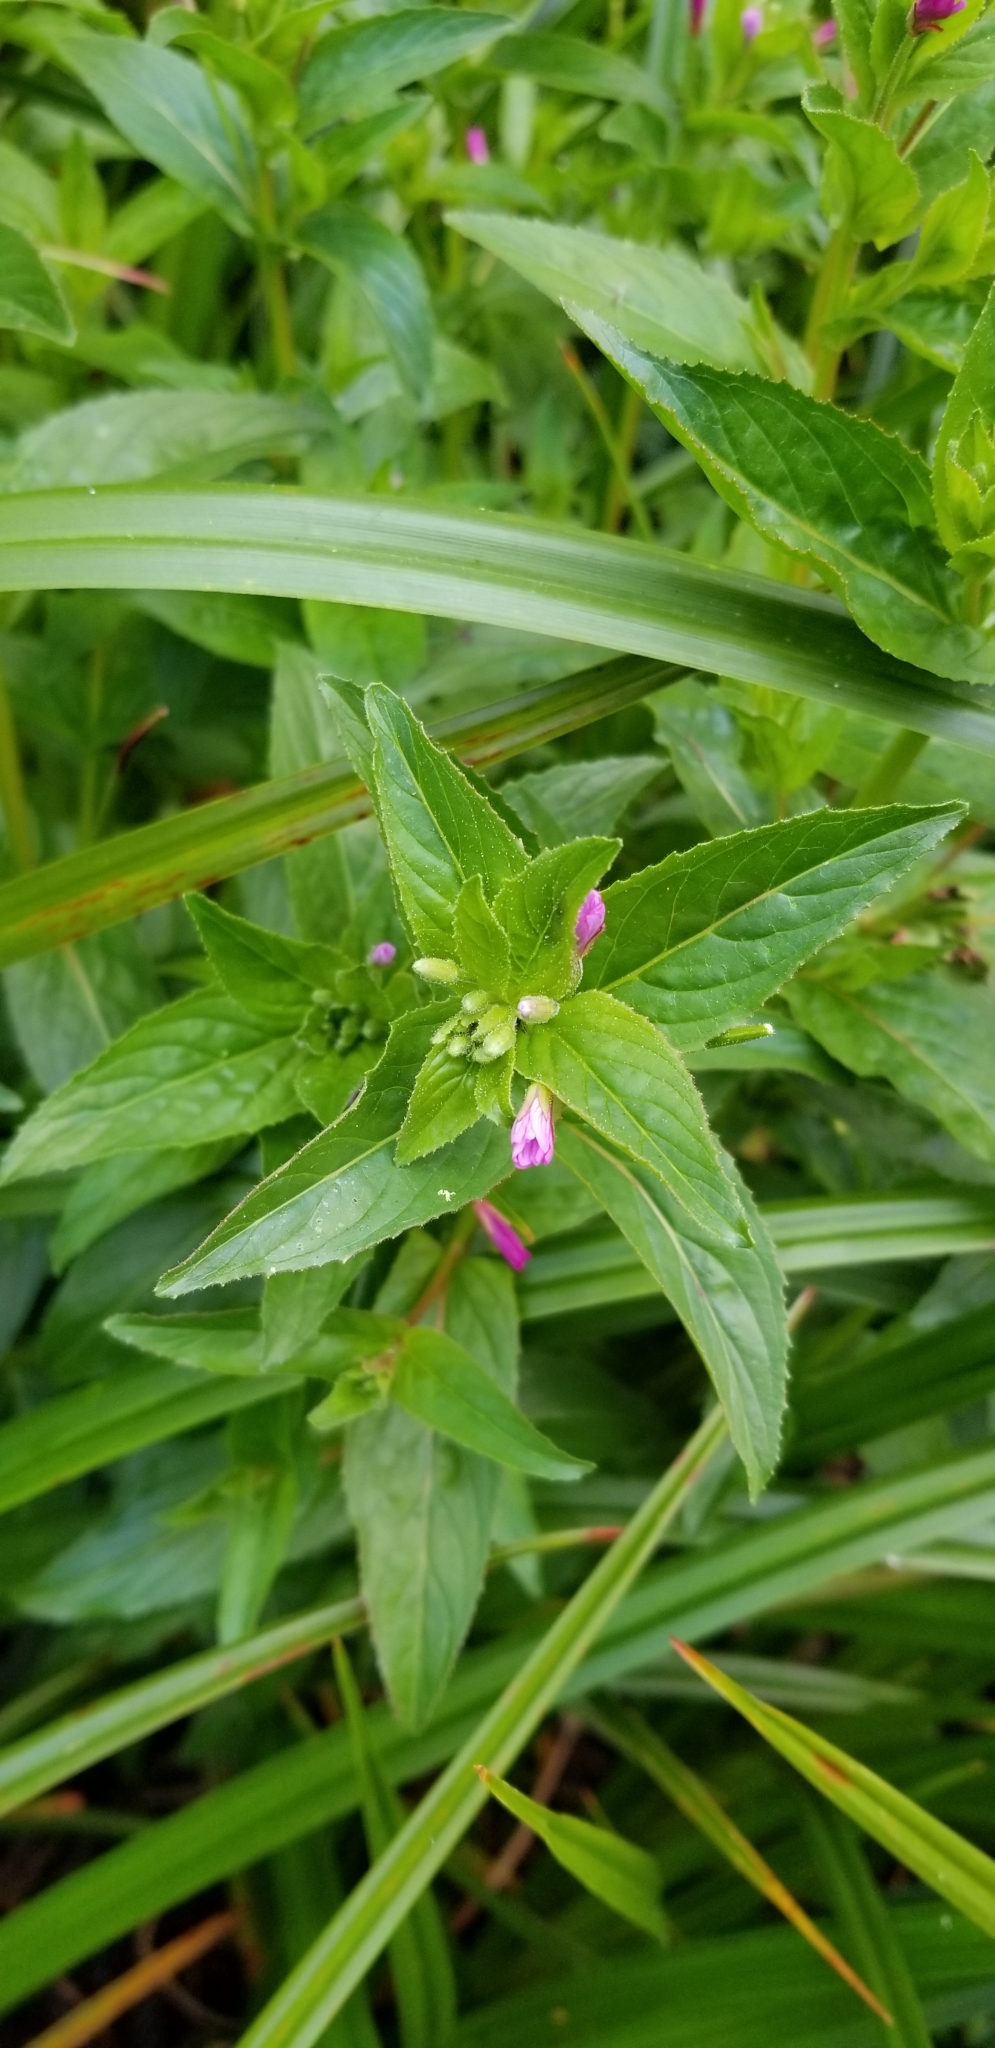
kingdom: Plantae
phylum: Tracheophyta
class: Magnoliopsida
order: Myrtales
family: Onagraceae
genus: Epilobium
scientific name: Epilobium ciliatum
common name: American willowherb
